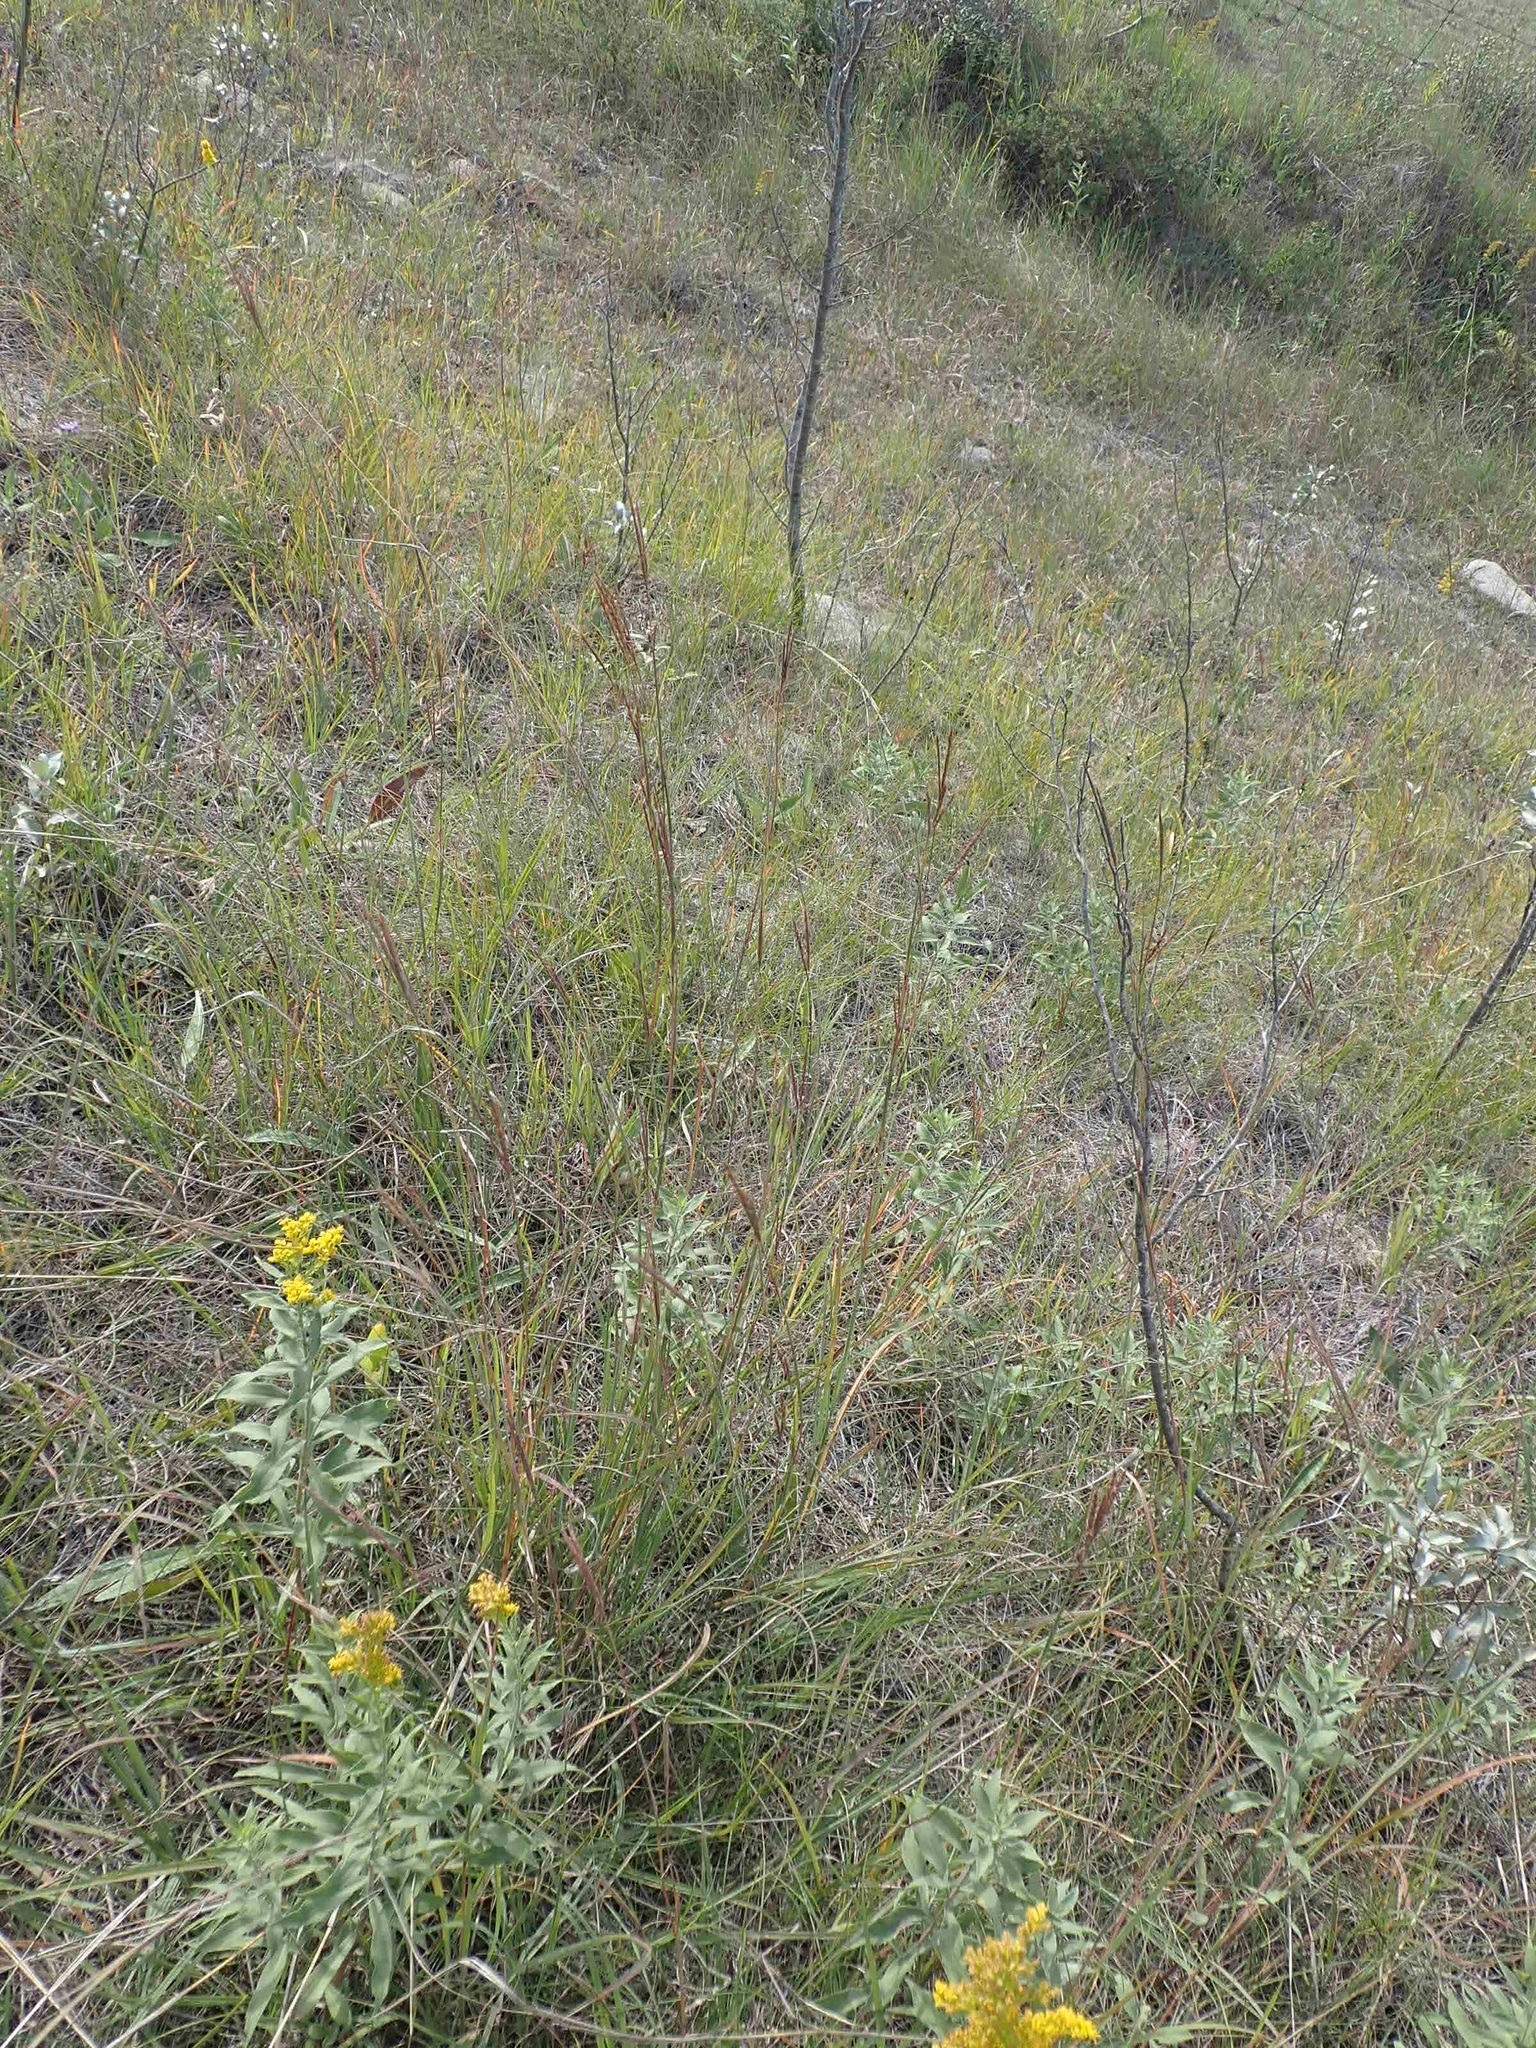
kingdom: Plantae
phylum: Tracheophyta
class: Liliopsida
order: Poales
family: Poaceae
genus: Andropogon
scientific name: Andropogon gerardi
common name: Big bluestem
